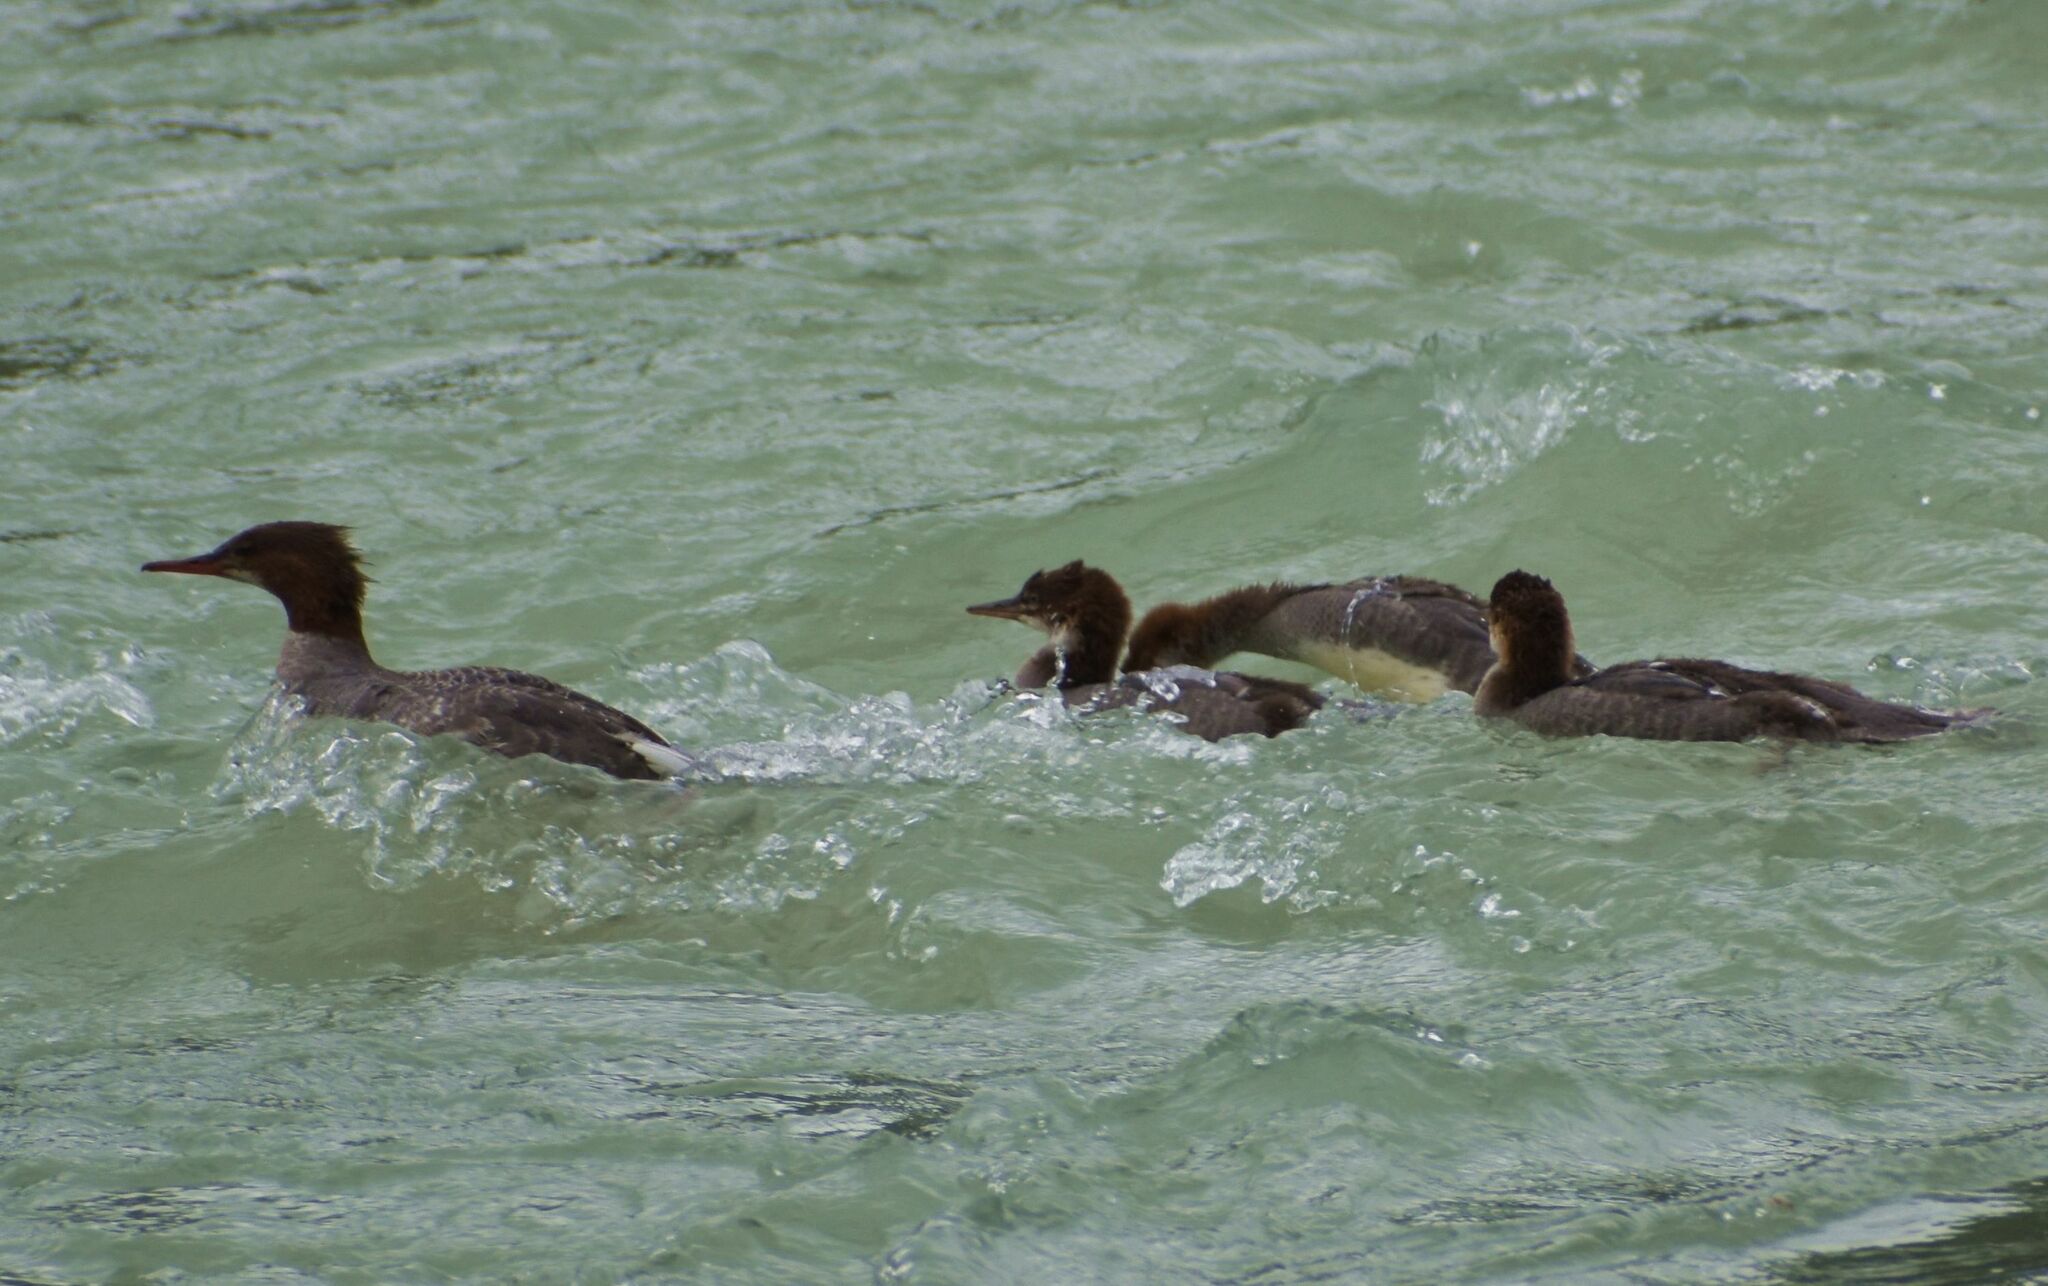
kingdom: Animalia
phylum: Chordata
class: Aves
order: Anseriformes
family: Anatidae
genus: Mergus
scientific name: Mergus merganser
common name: Common merganser
